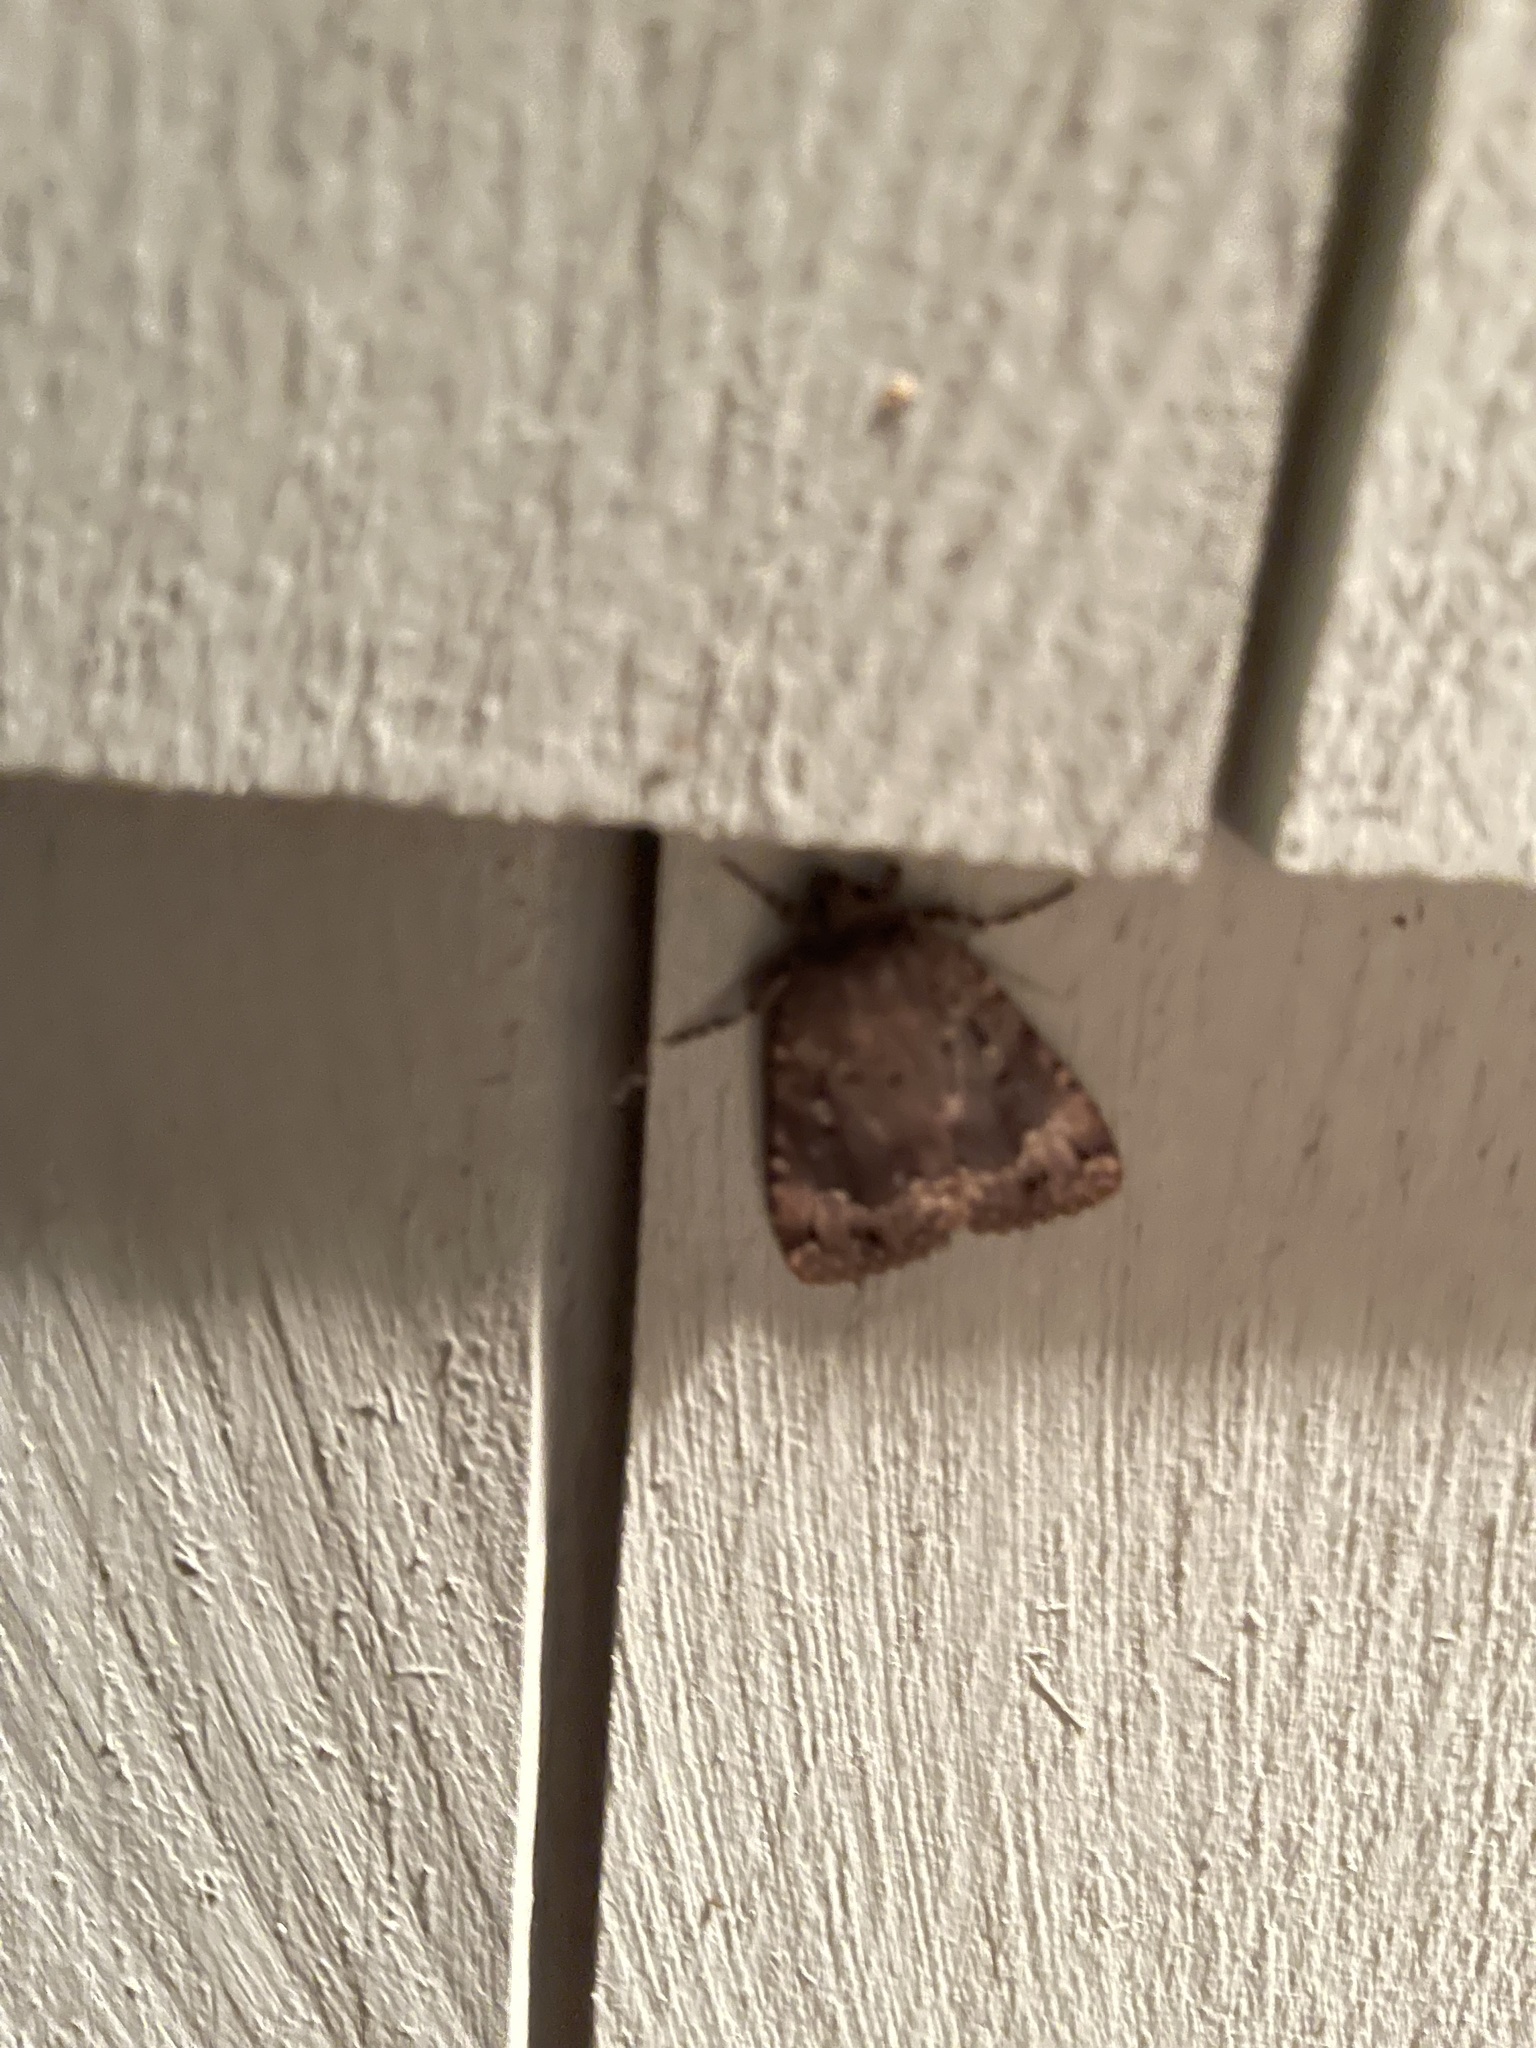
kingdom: Animalia
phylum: Arthropoda
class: Insecta
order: Lepidoptera
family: Noctuidae
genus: Amphipyra
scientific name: Amphipyra pyramidoides
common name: American copper underwing
